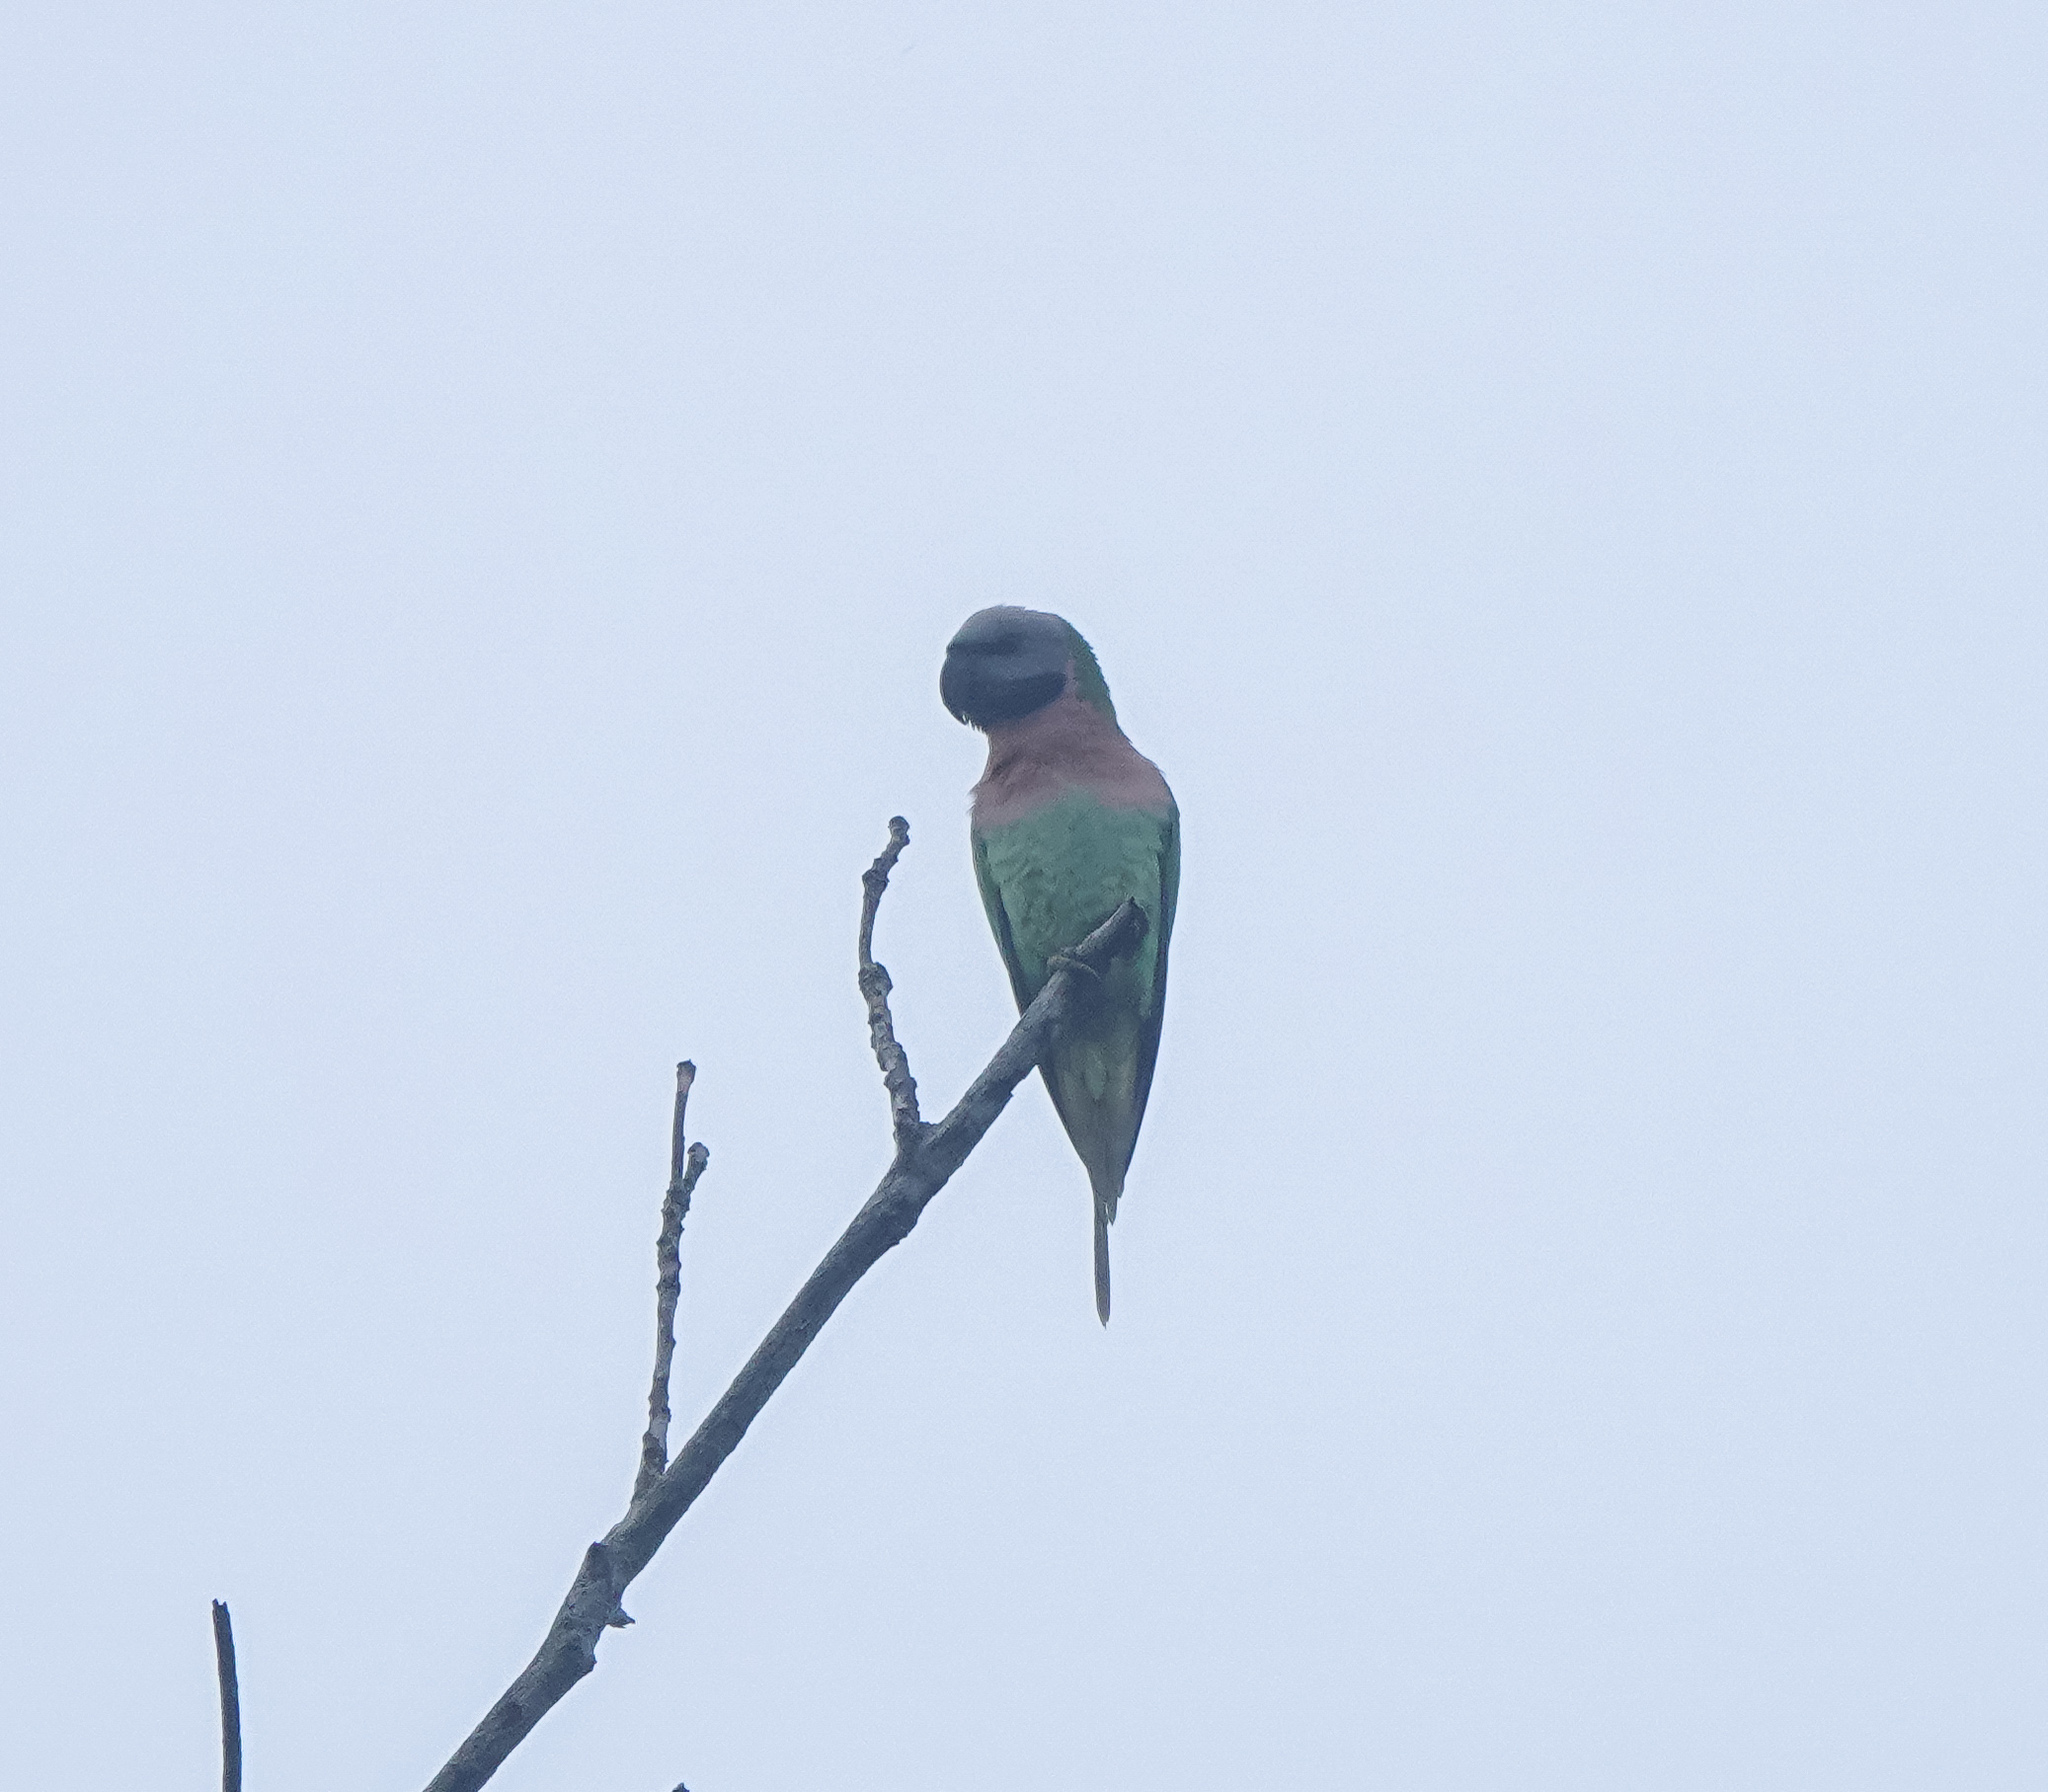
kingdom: Animalia
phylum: Chordata
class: Aves
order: Psittaciformes
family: Psittacidae
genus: Psittacula
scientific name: Psittacula alexandri
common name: Red-breasted parakeet
